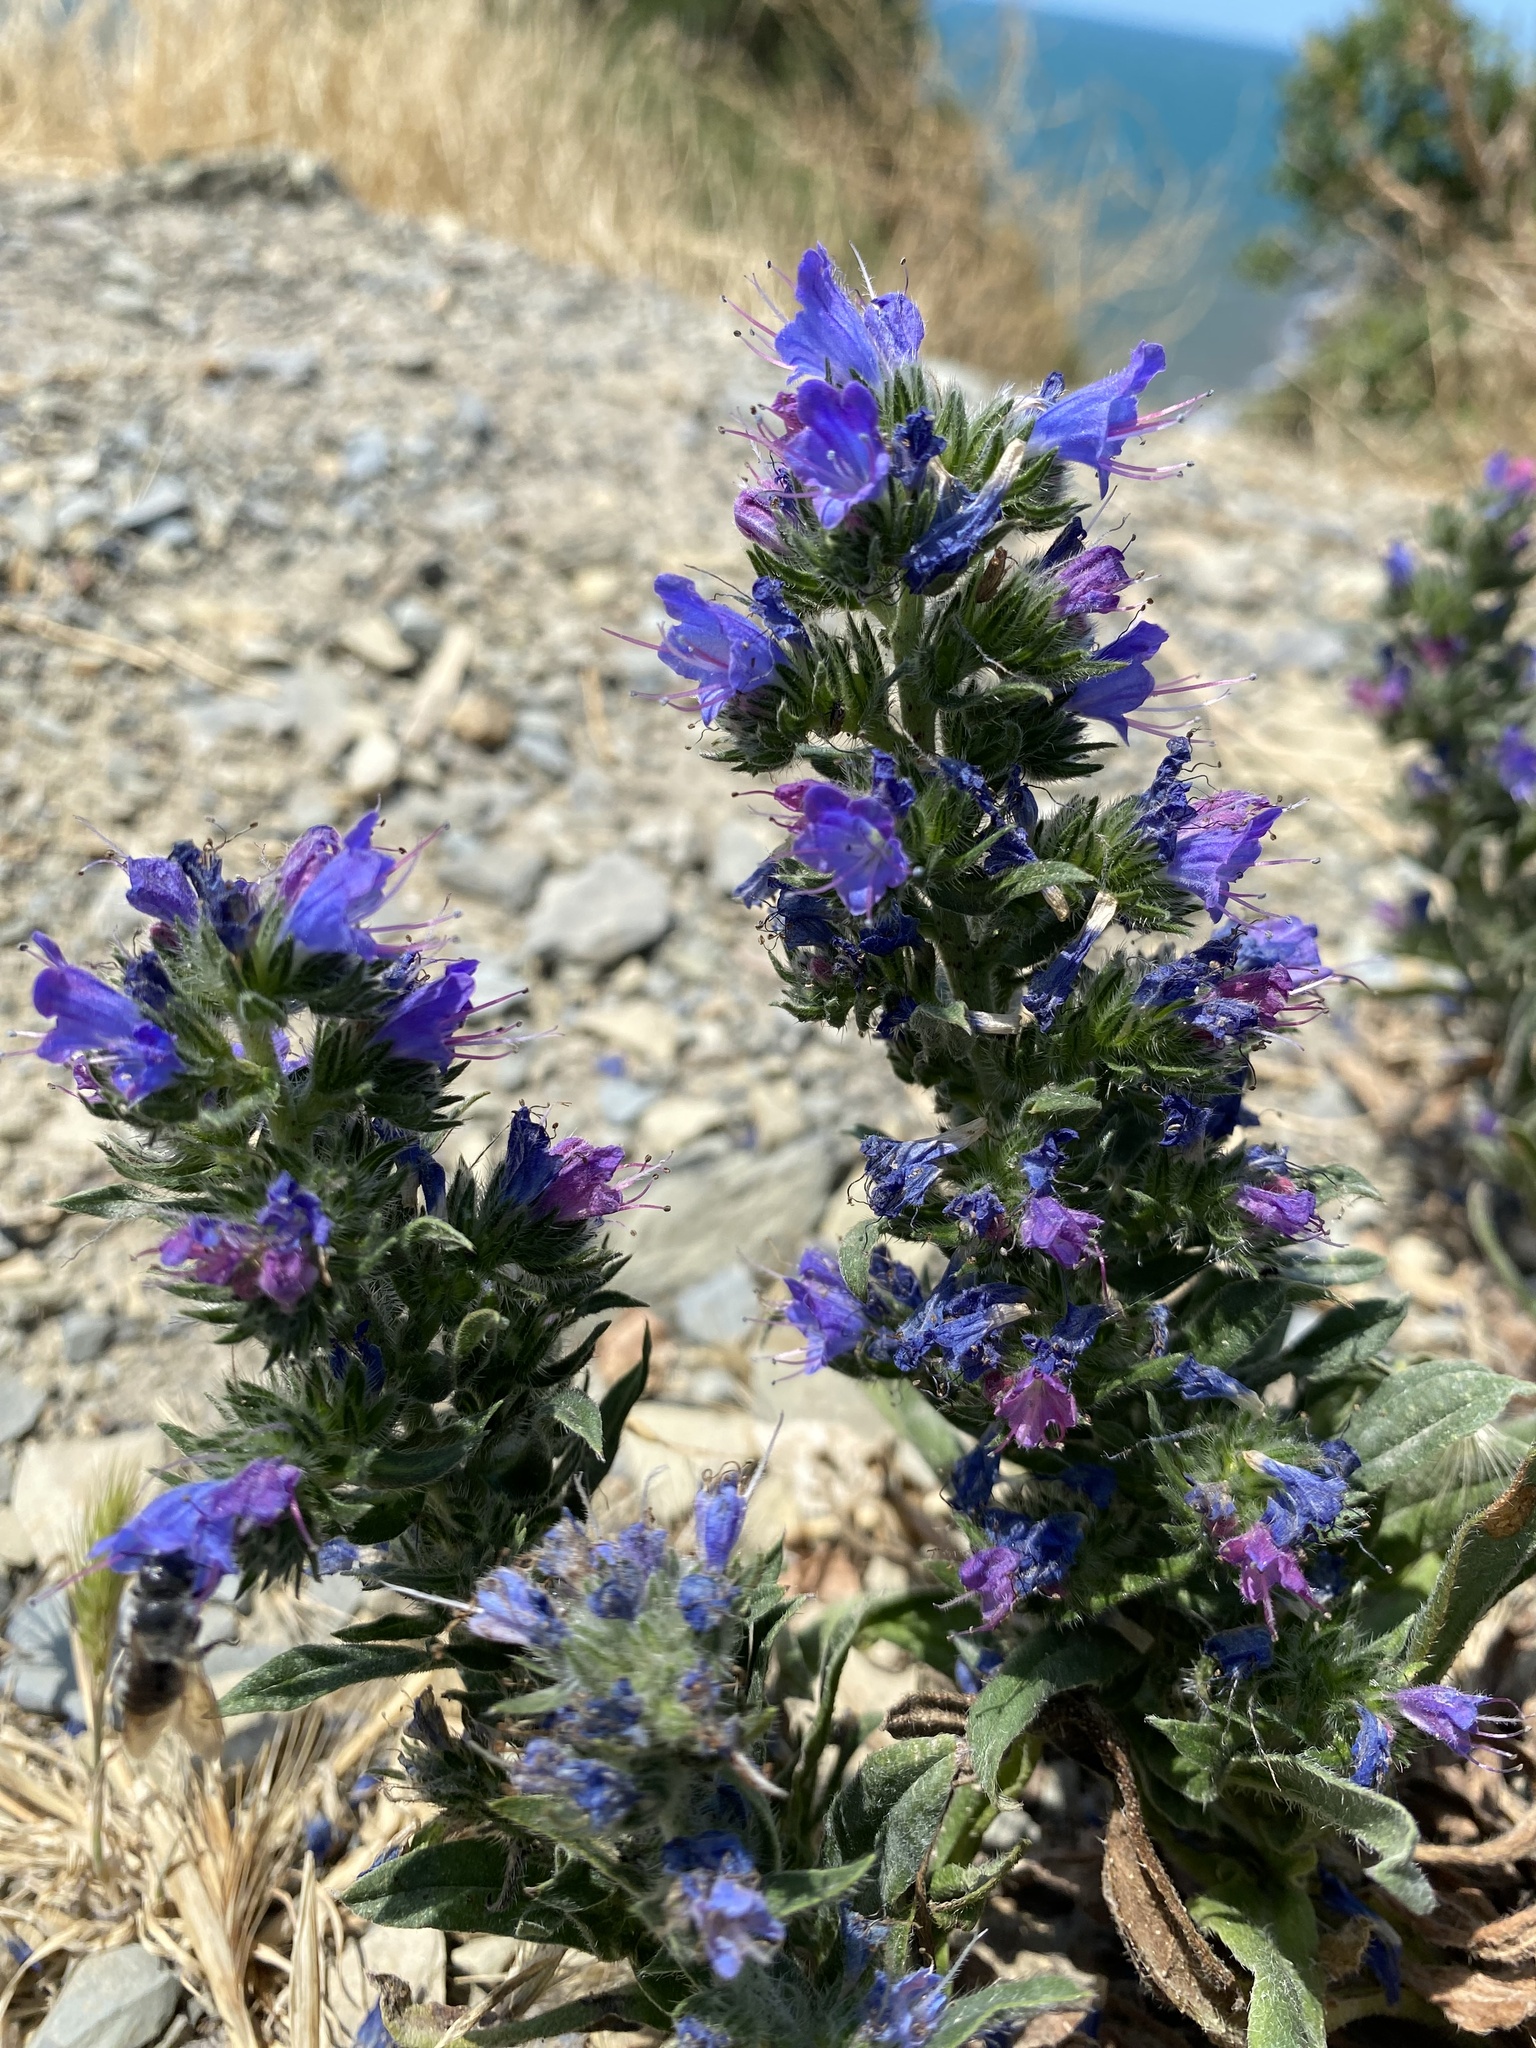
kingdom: Plantae
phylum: Tracheophyta
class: Magnoliopsida
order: Boraginales
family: Boraginaceae
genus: Echium
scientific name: Echium vulgare
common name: Common viper's bugloss
